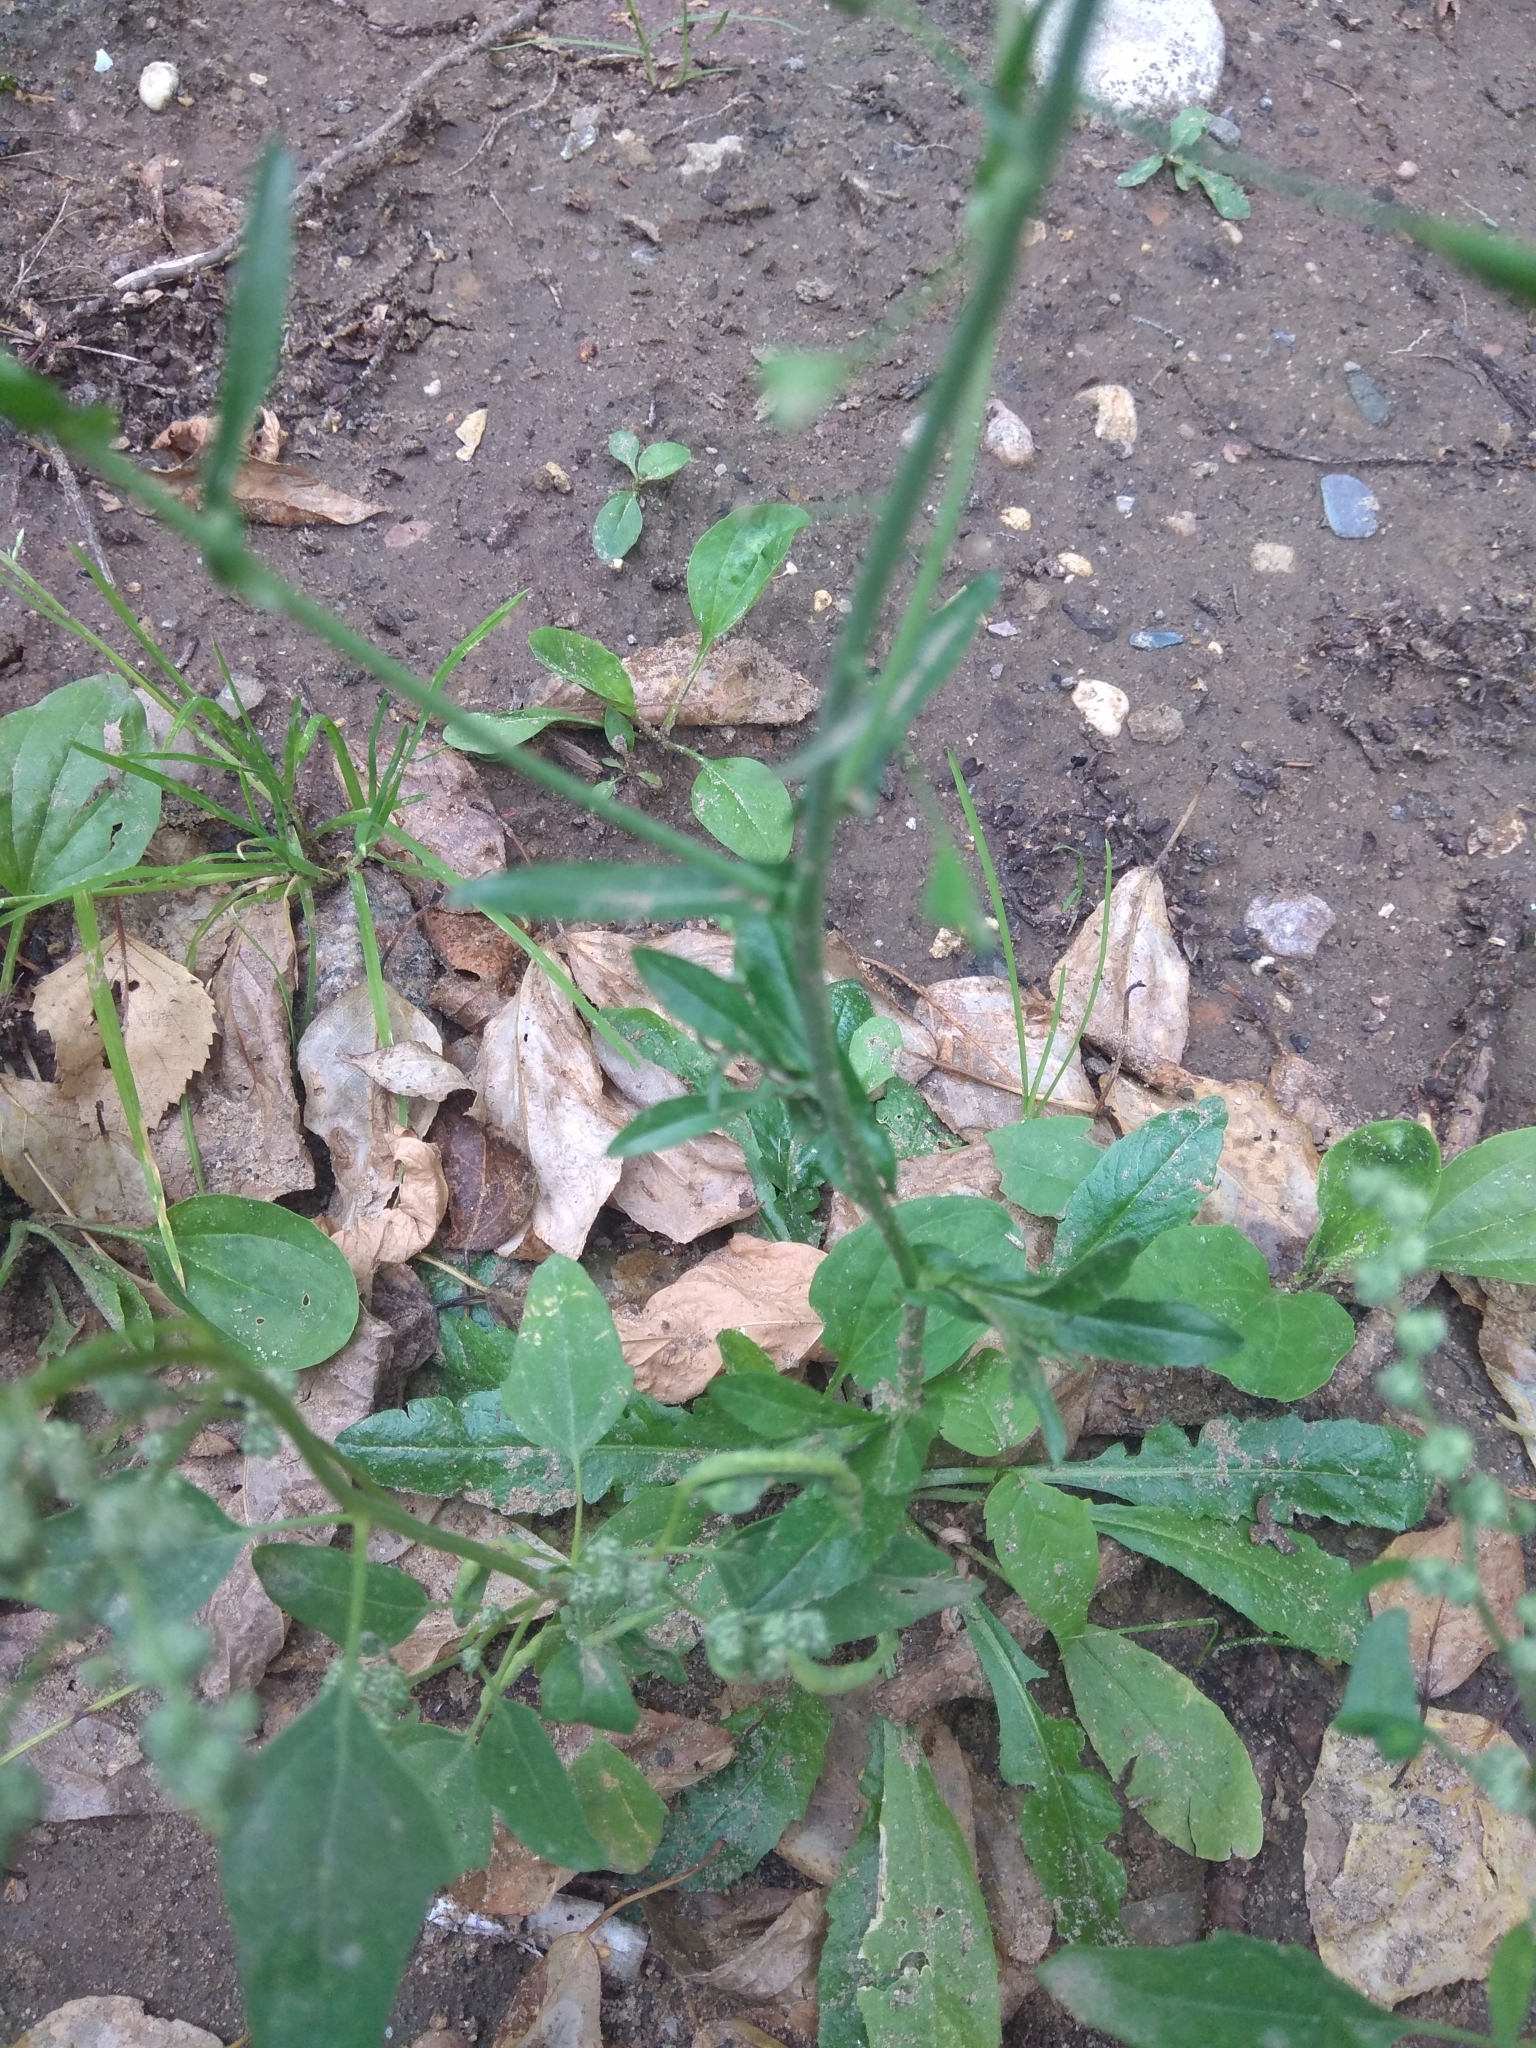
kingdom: Plantae
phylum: Tracheophyta
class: Magnoliopsida
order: Brassicales
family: Brassicaceae
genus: Capsella
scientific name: Capsella bursa-pastoris
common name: Shepherd's purse
